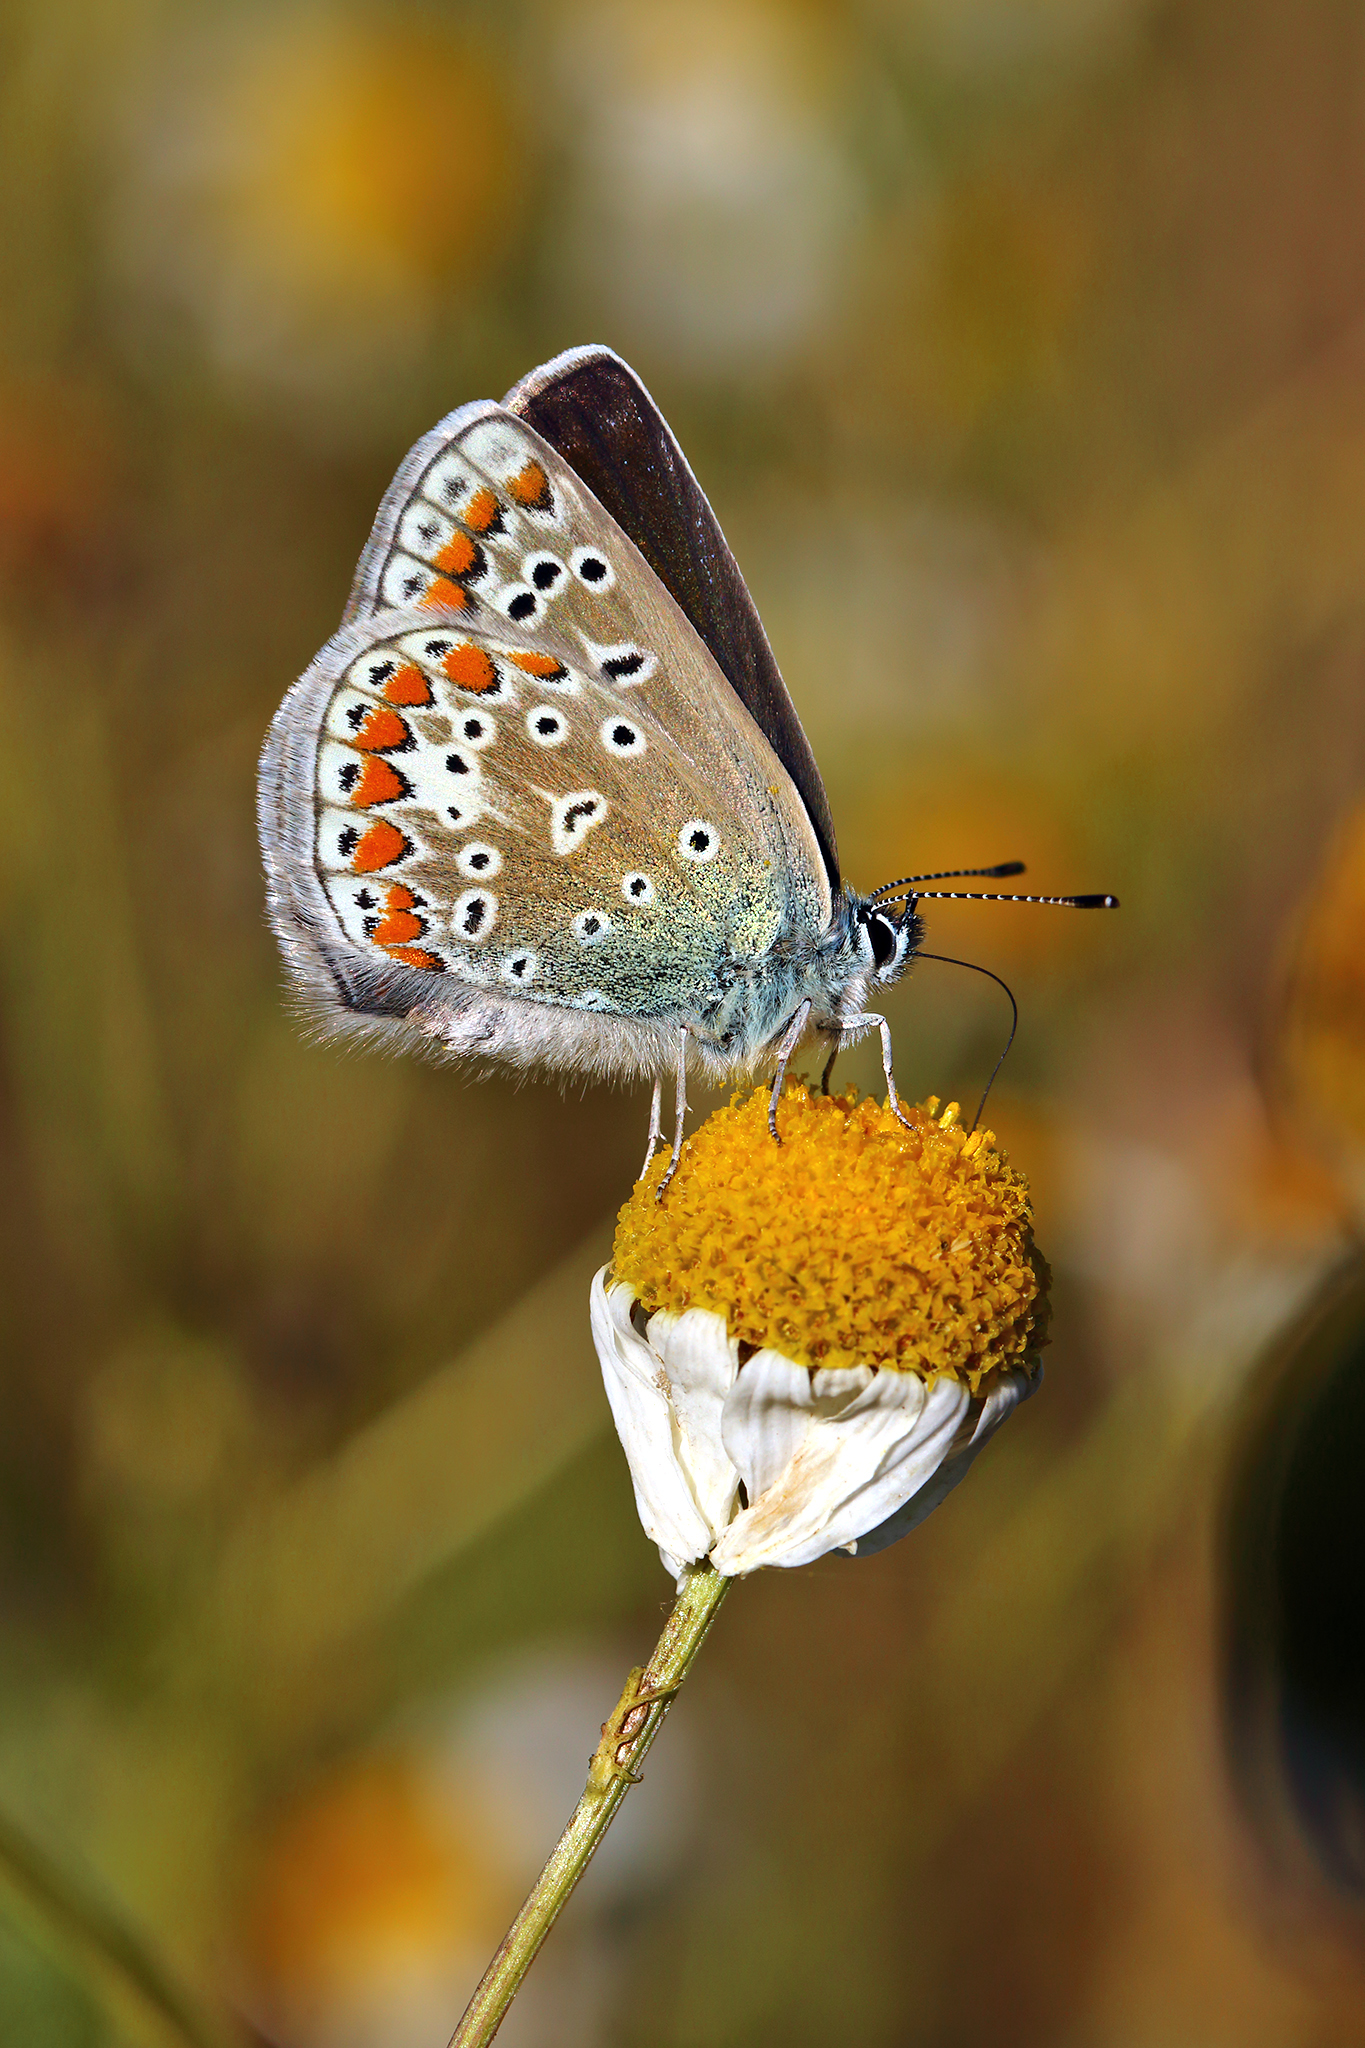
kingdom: Animalia
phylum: Arthropoda
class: Insecta
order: Lepidoptera
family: Lycaenidae
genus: Polyommatus
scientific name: Polyommatus icarus
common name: Common blue
